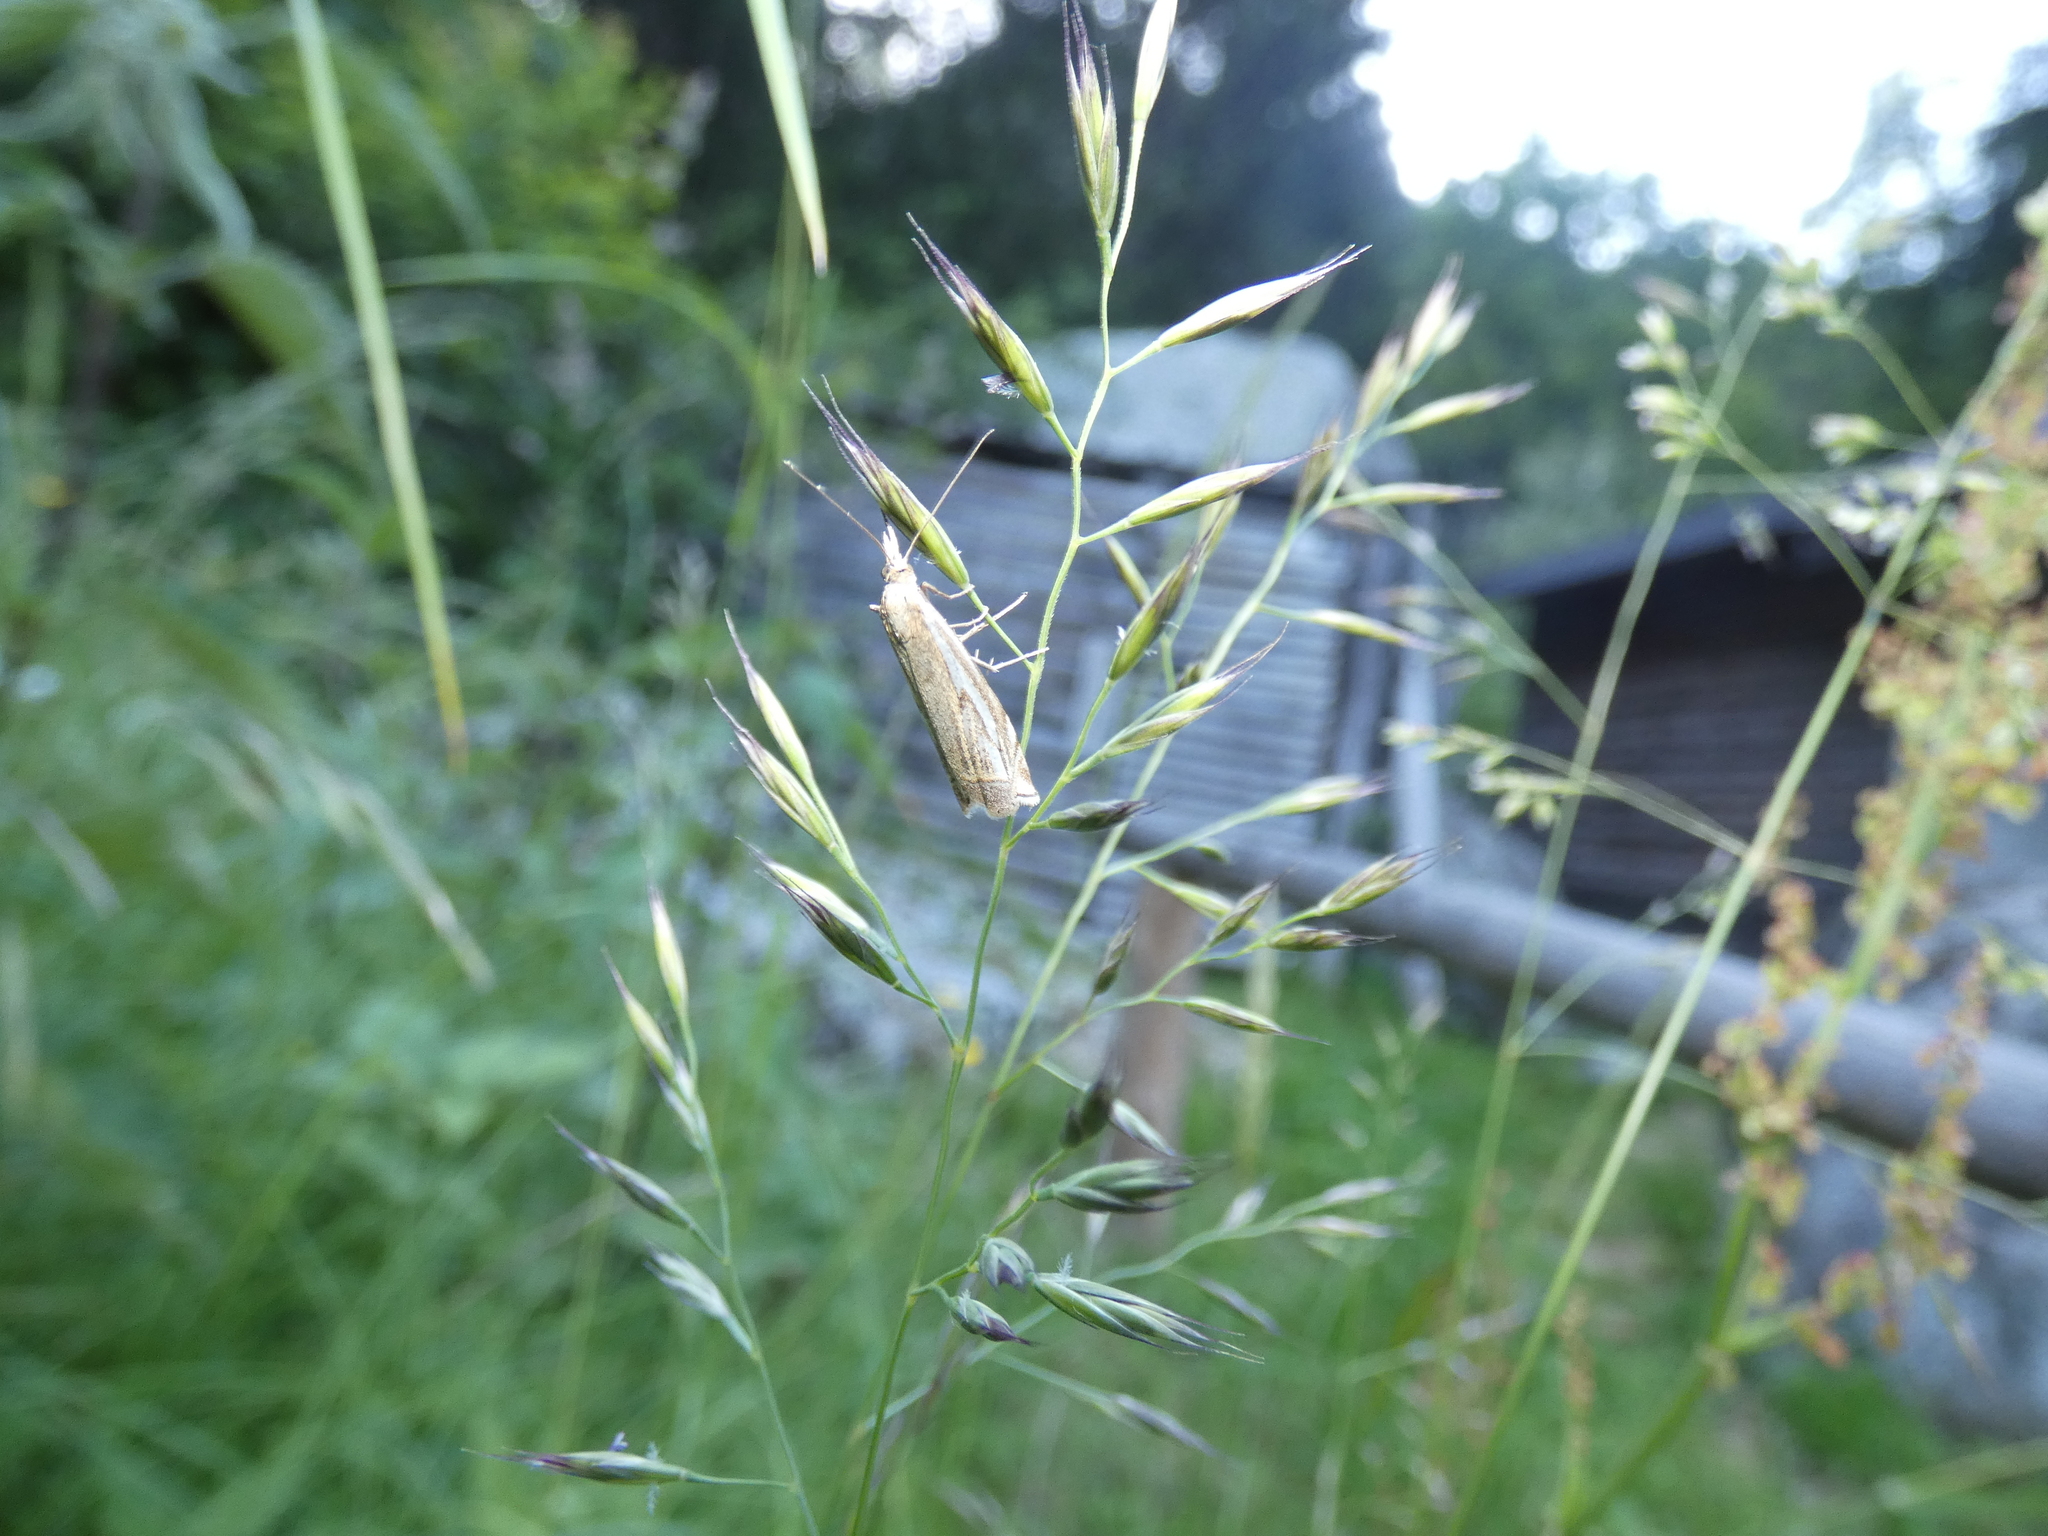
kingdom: Animalia
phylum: Arthropoda
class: Insecta
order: Lepidoptera
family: Crambidae
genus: Crambus
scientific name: Crambus nemorella
